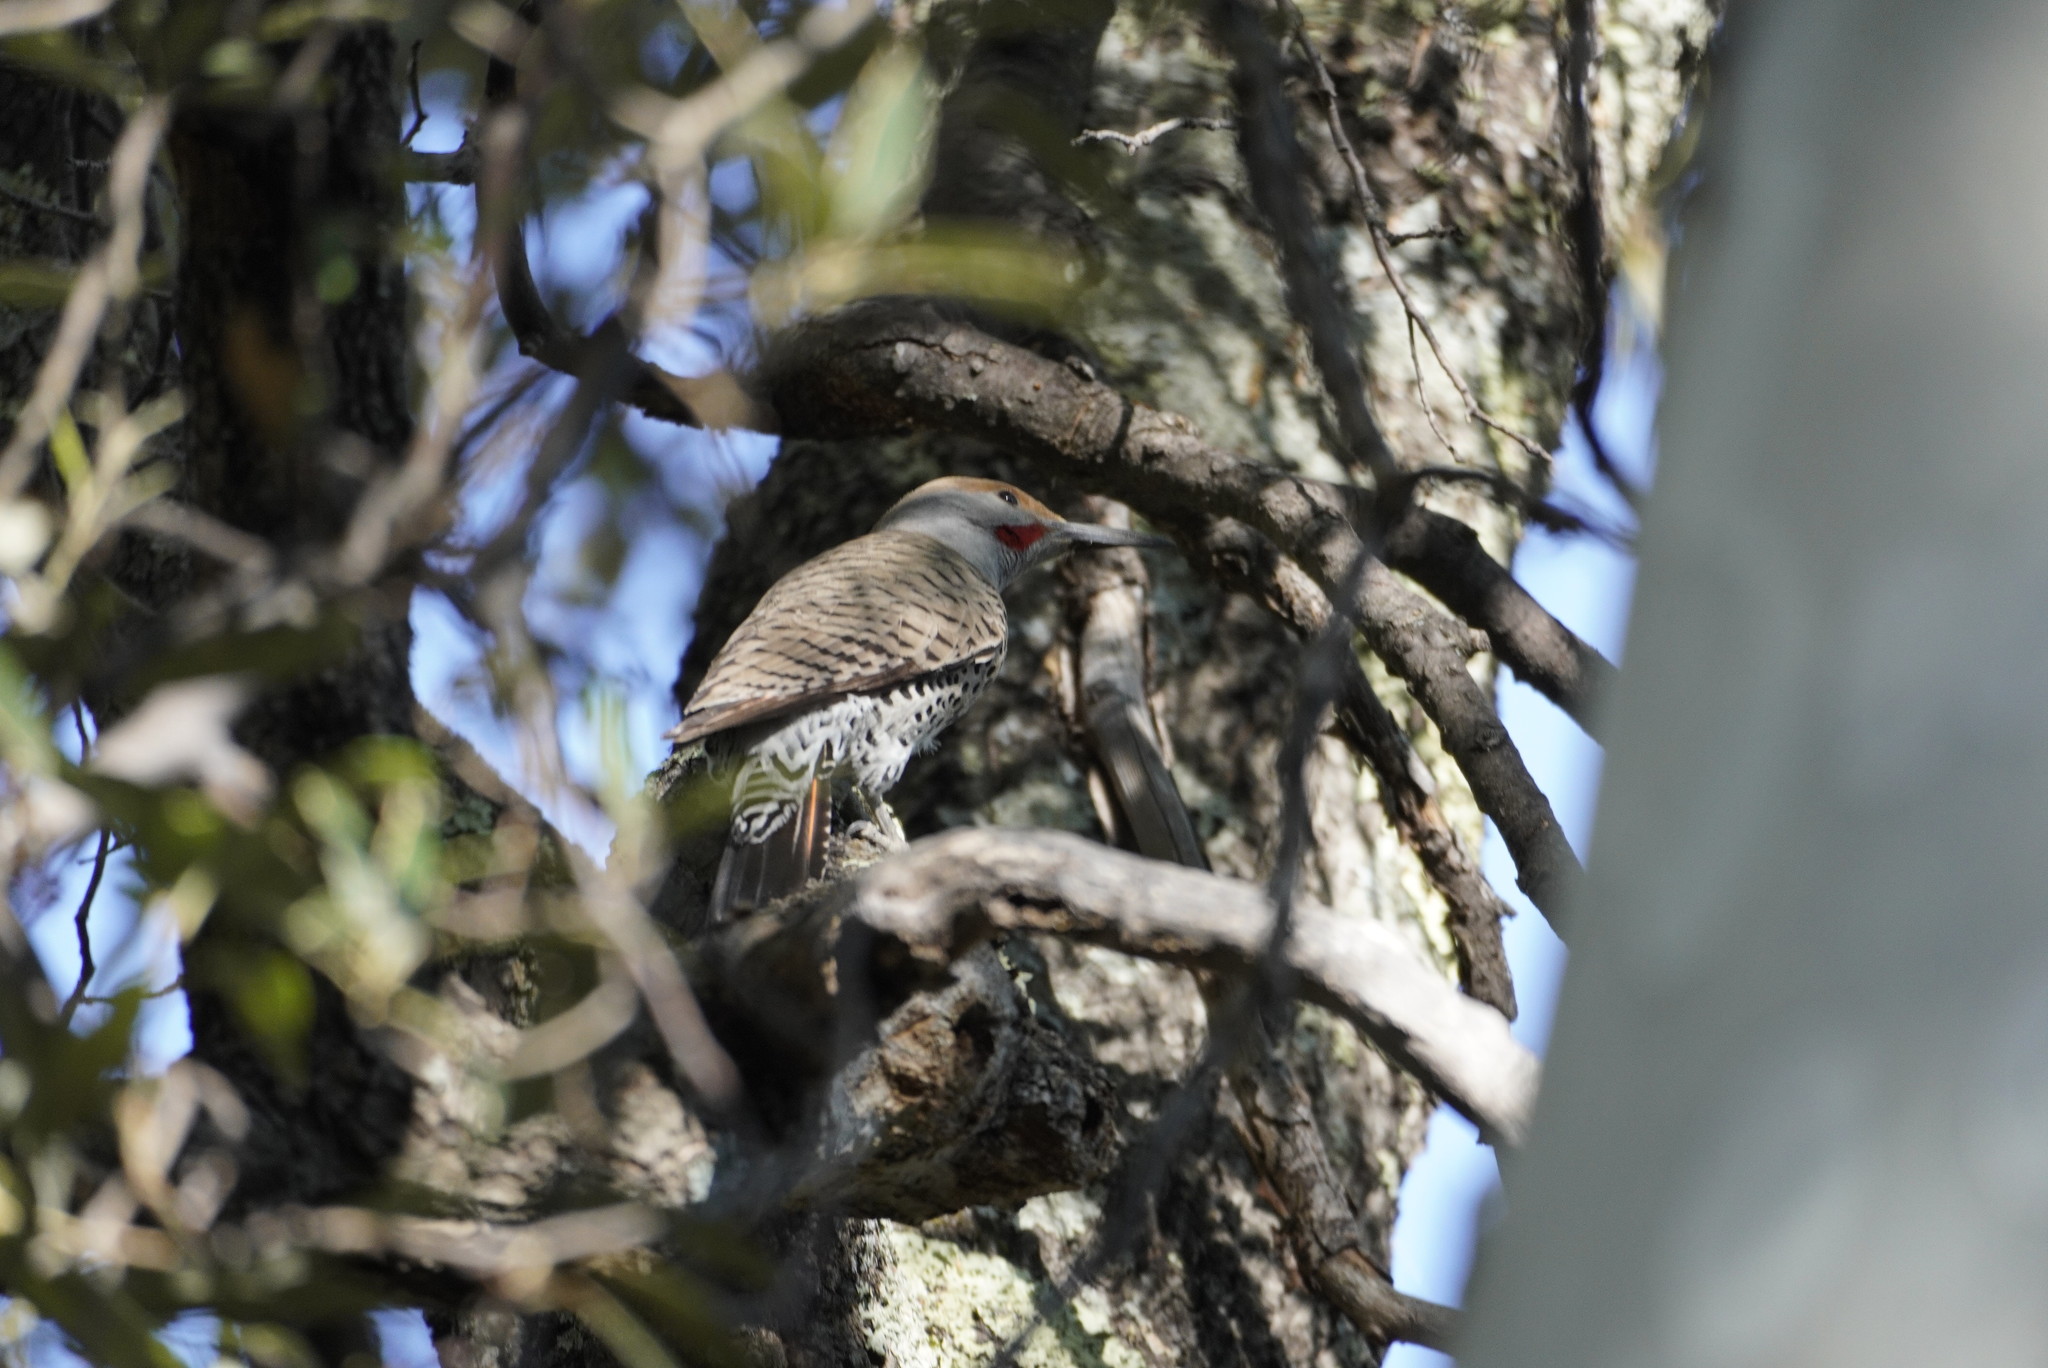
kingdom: Animalia
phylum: Chordata
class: Aves
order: Piciformes
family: Picidae
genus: Colaptes
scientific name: Colaptes auratus
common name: Northern flicker
